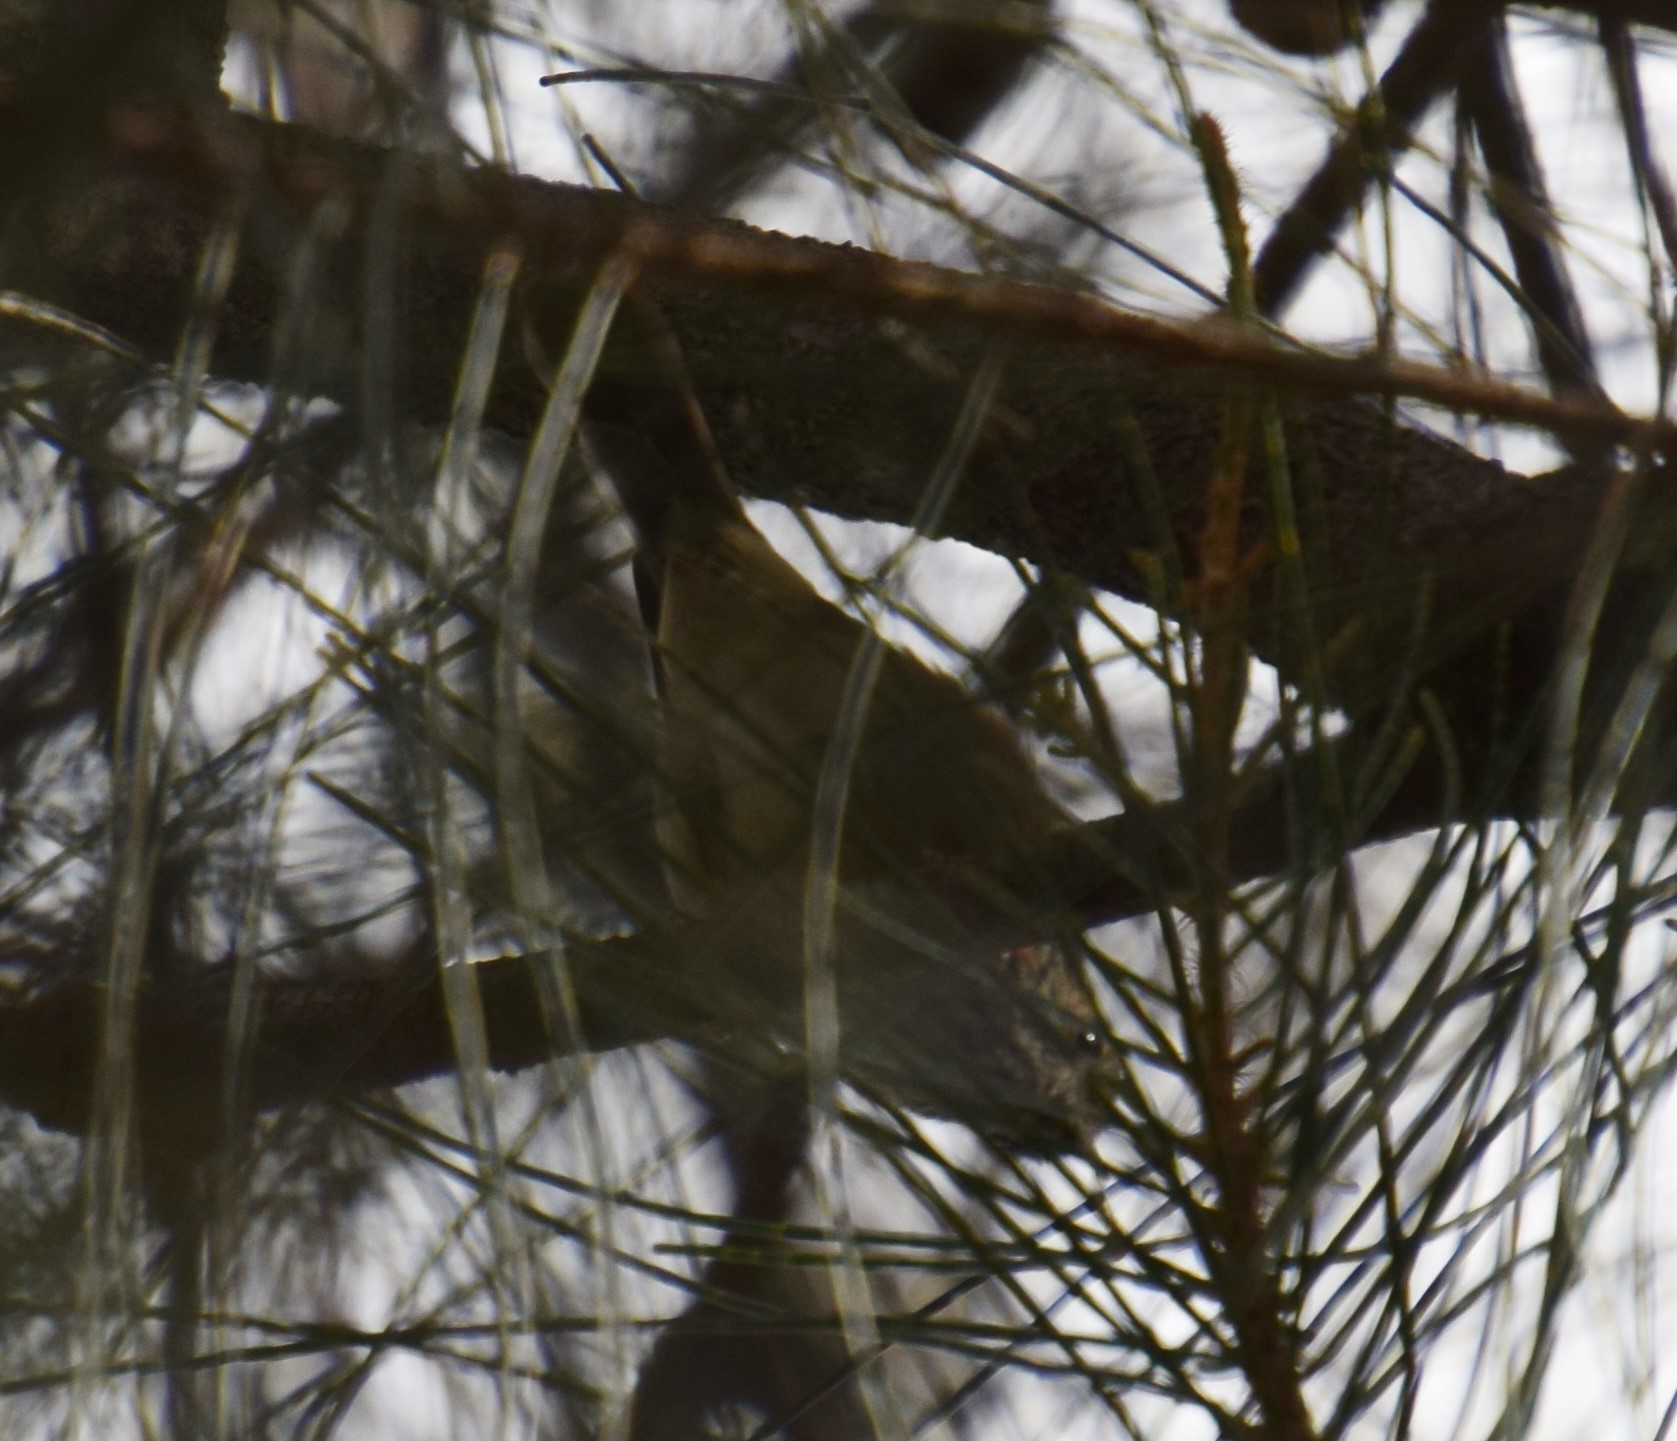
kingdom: Animalia
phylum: Chordata
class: Aves
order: Passeriformes
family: Acanthizidae
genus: Acanthiza
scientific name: Acanthiza pusilla
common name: Brown thornbill
